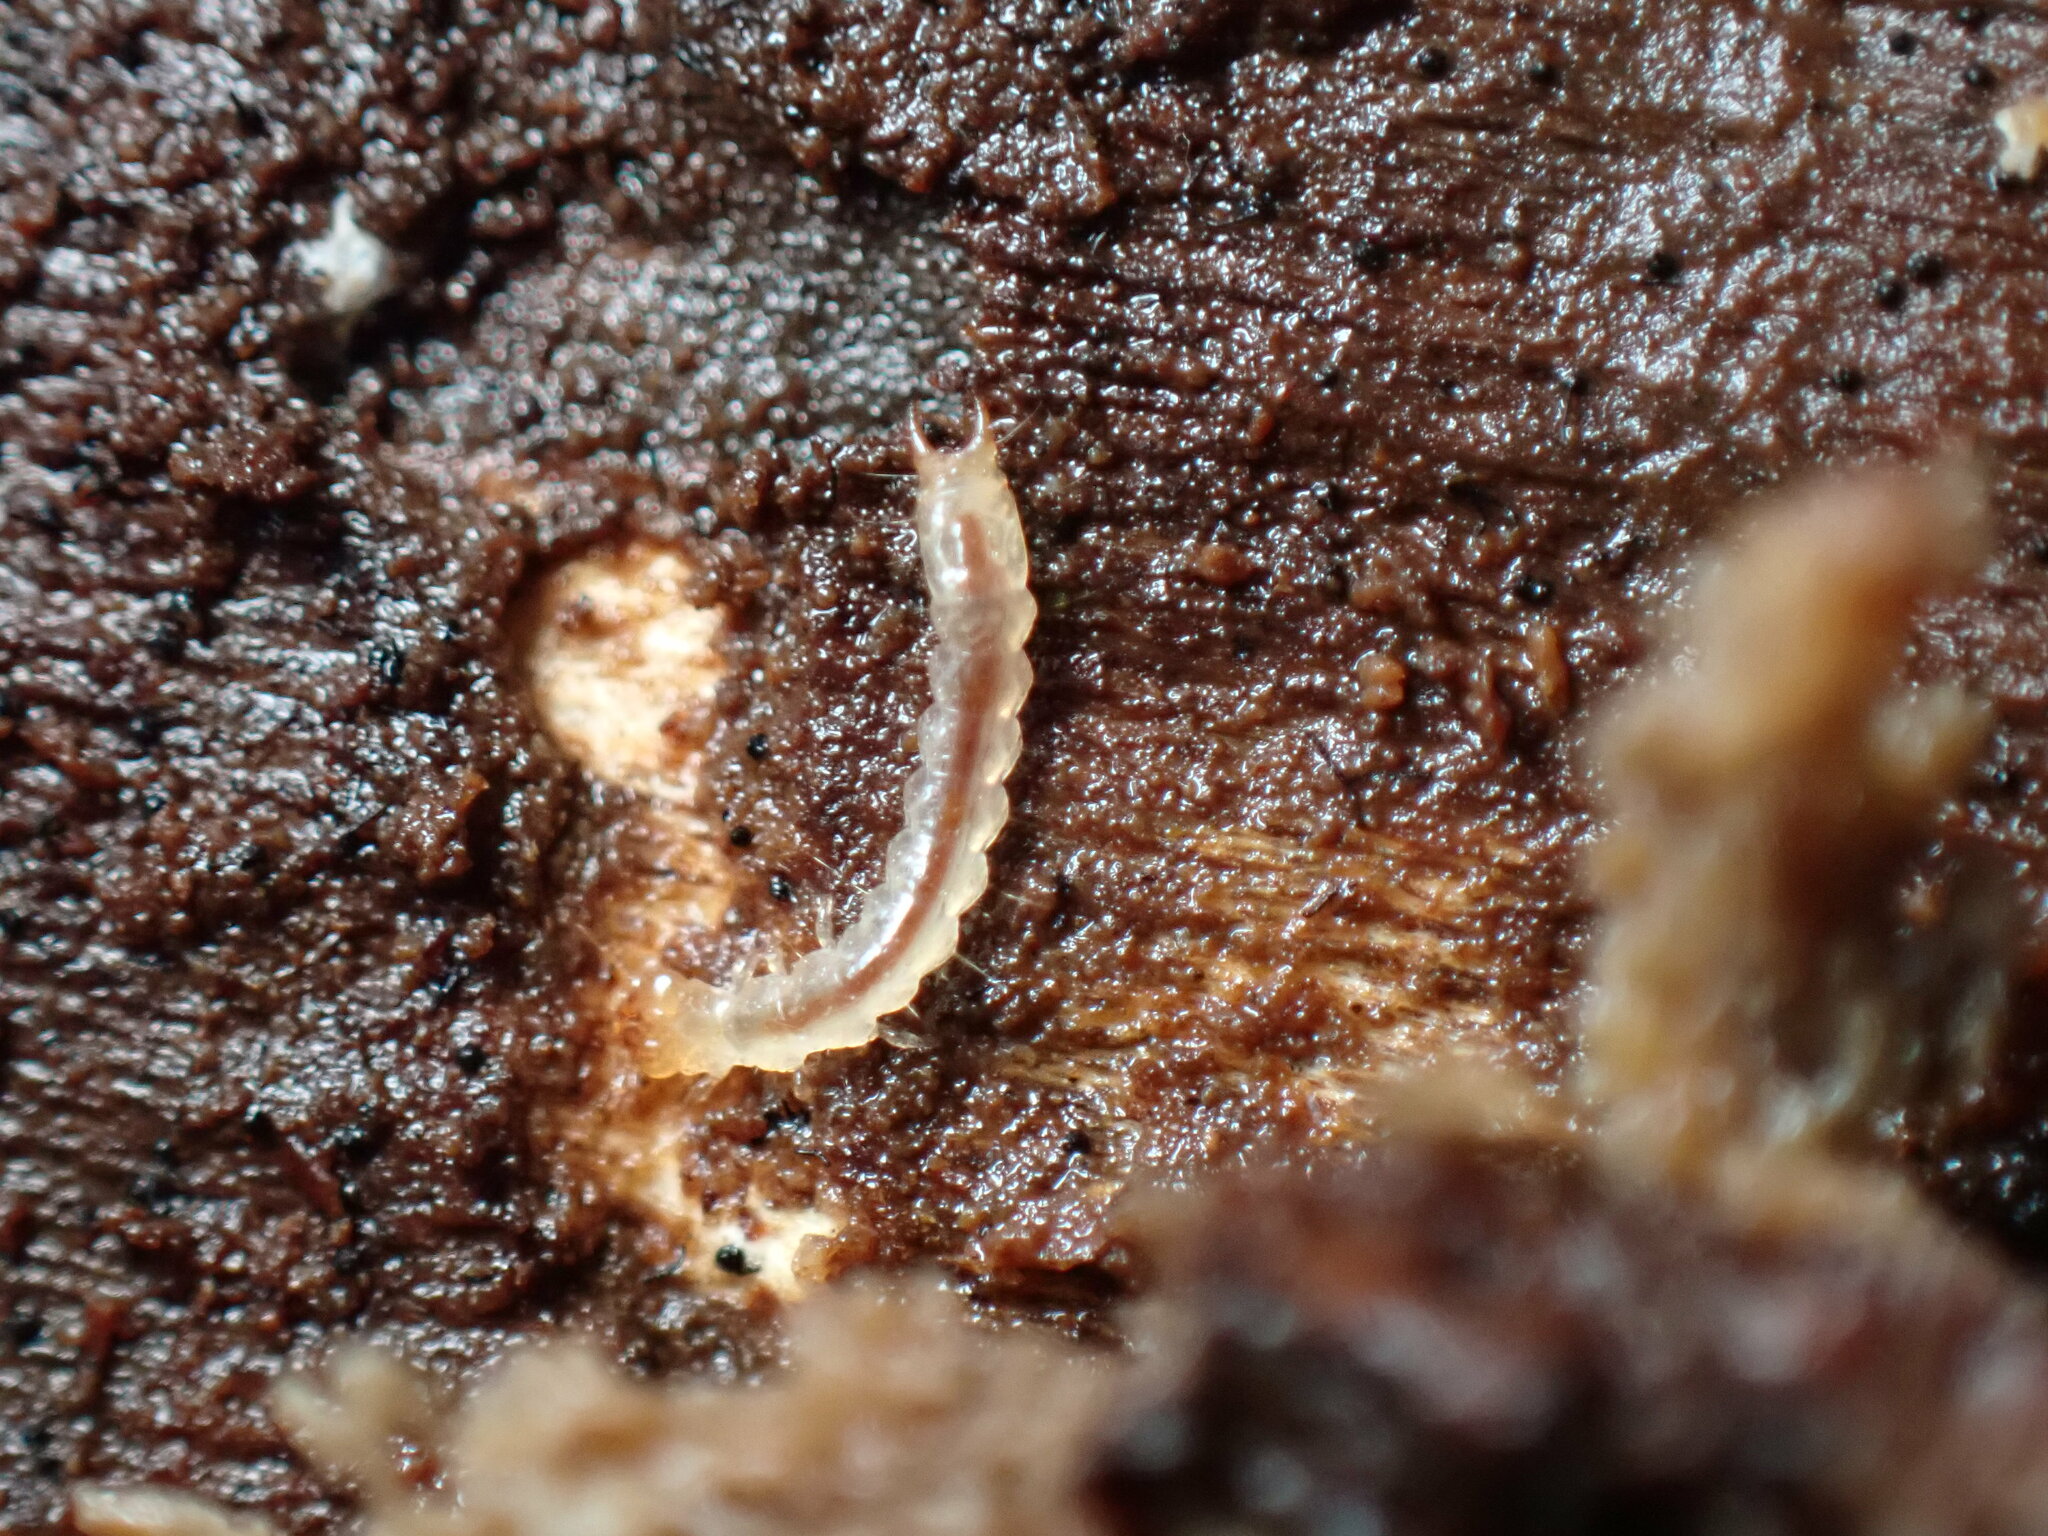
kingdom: Animalia
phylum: Arthropoda
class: Insecta
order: Coleoptera
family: Pyrochroidae
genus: Dendroides
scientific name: Dendroides canadensis
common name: Canada fire-colored beetle
